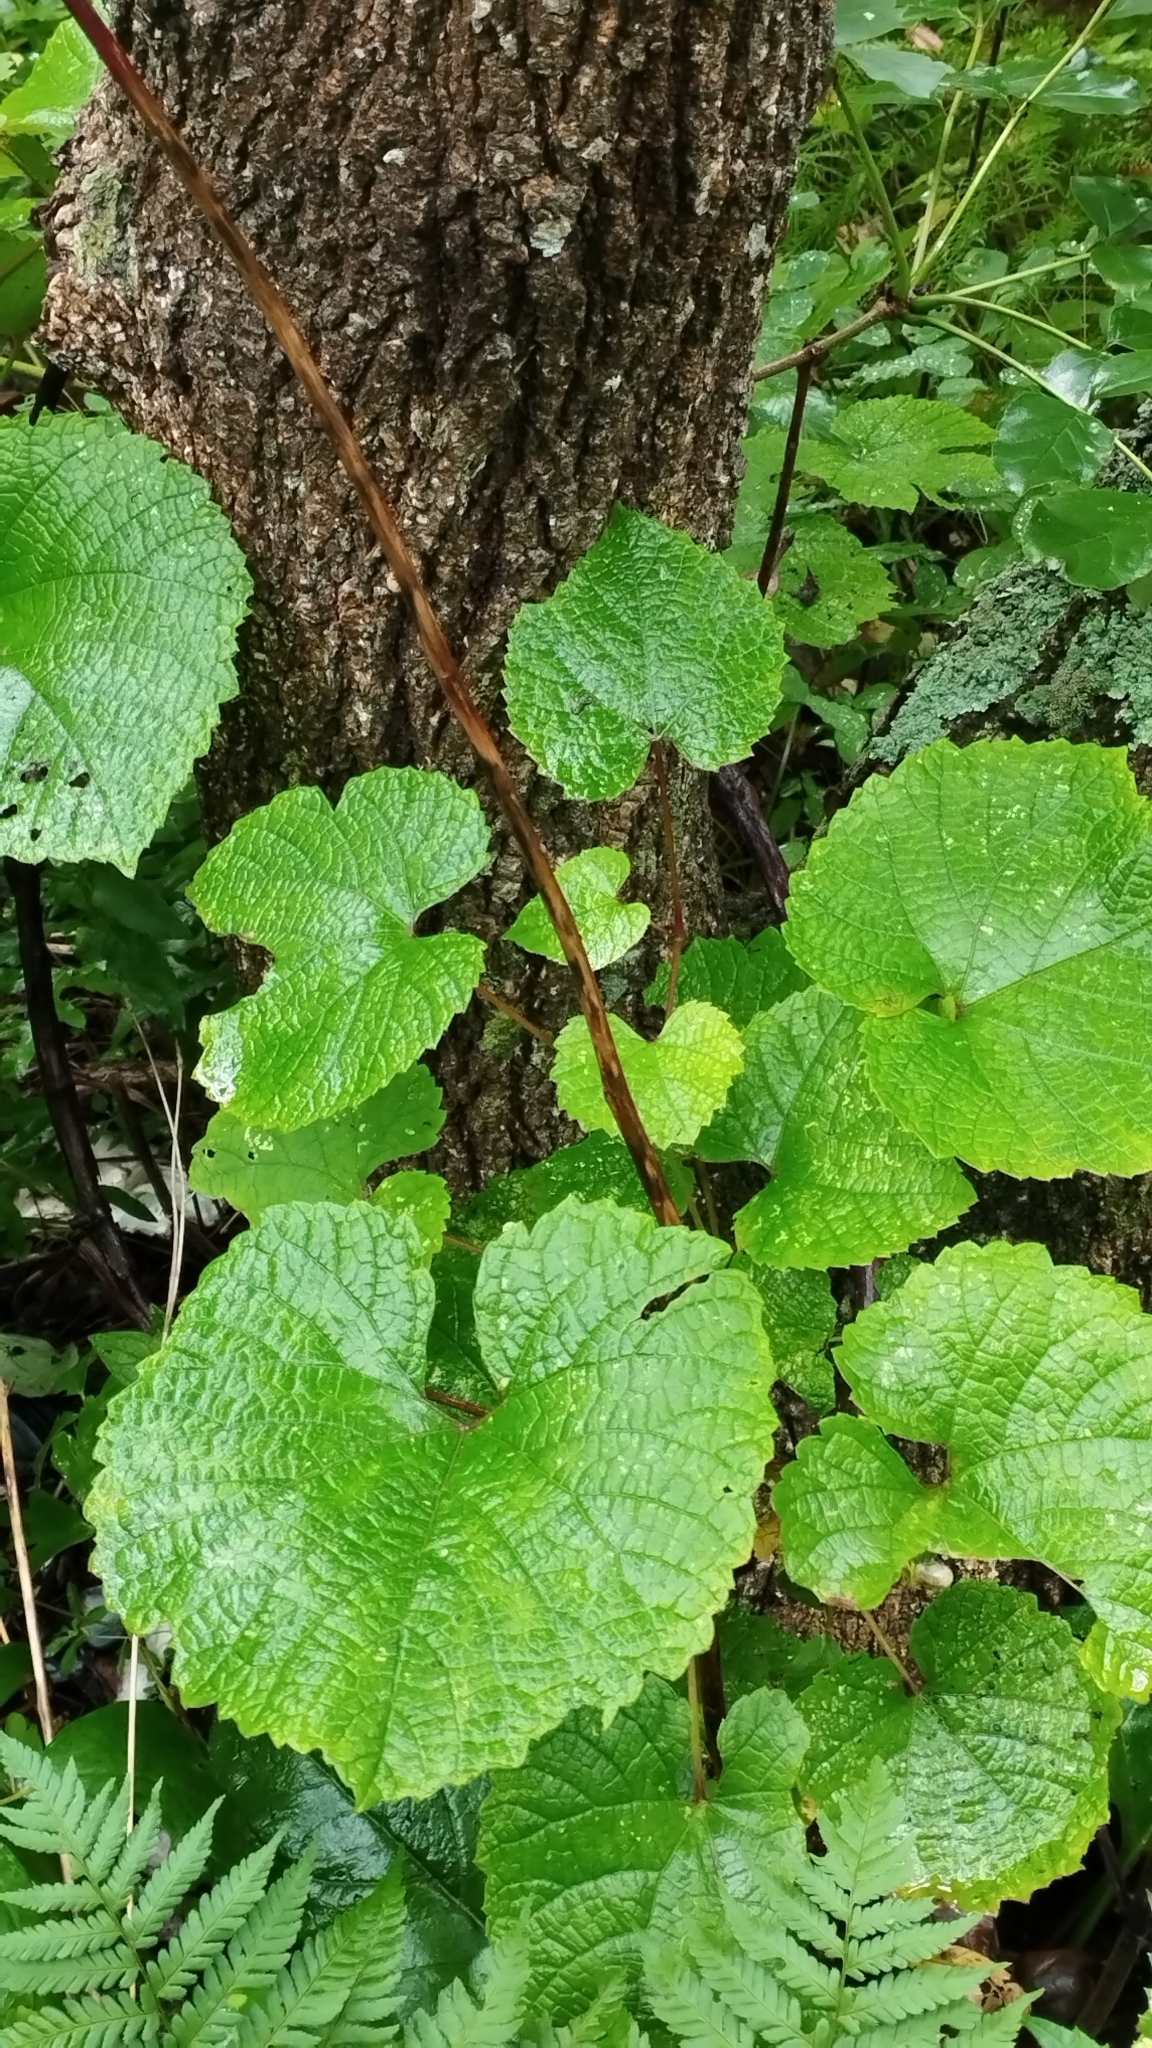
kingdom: Plantae
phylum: Tracheophyta
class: Magnoliopsida
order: Vitales
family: Vitaceae
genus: Vitis
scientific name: Vitis amurensis
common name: Amur grape
